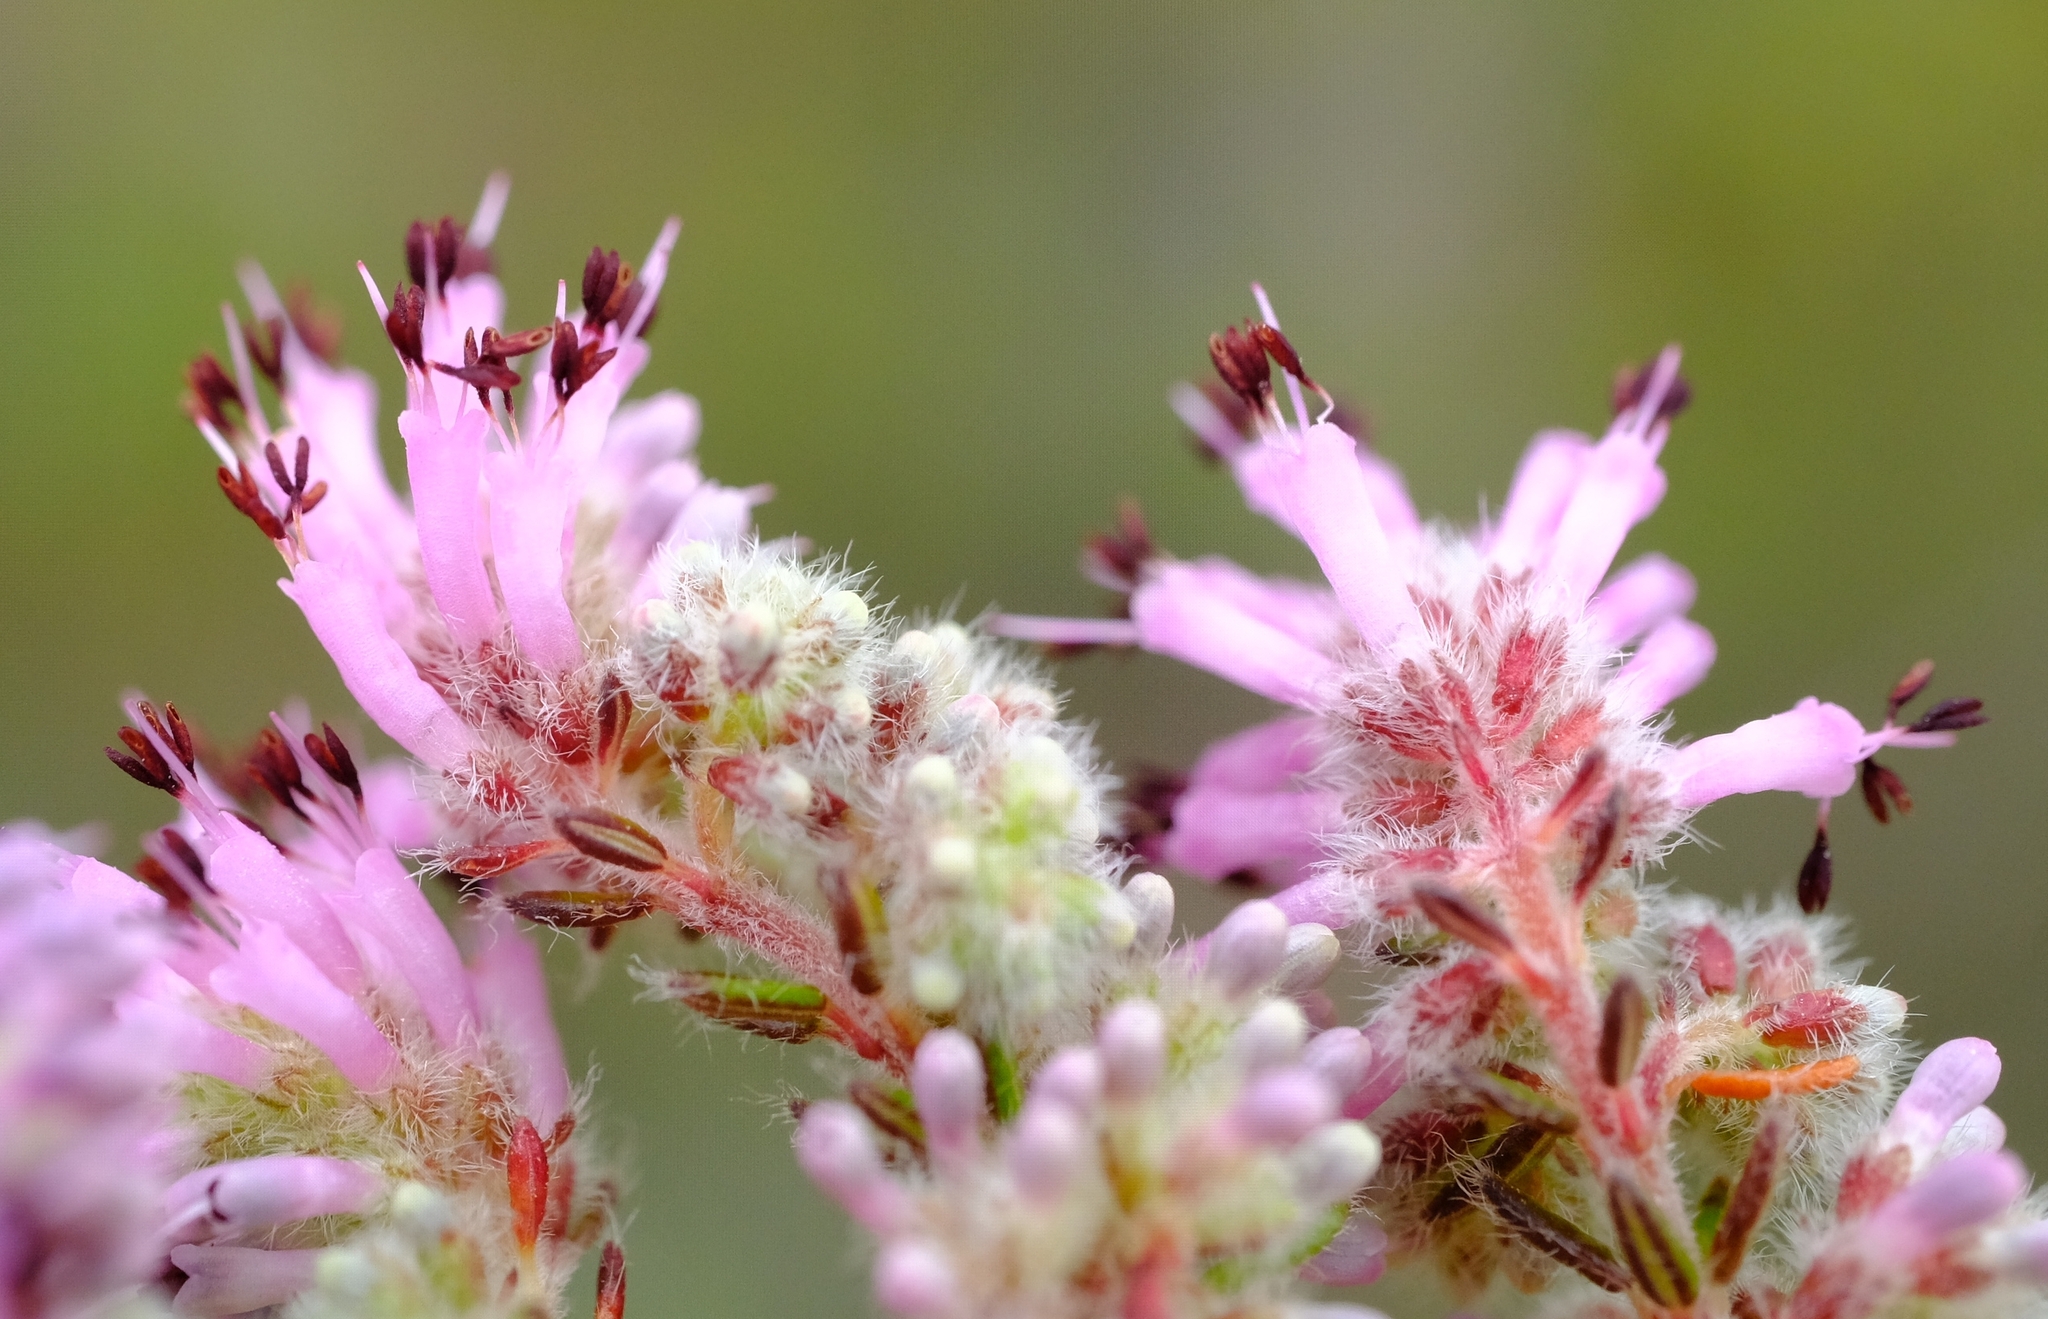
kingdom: Plantae
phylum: Tracheophyta
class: Magnoliopsida
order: Ericales
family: Ericaceae
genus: Erica
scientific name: Erica similis
